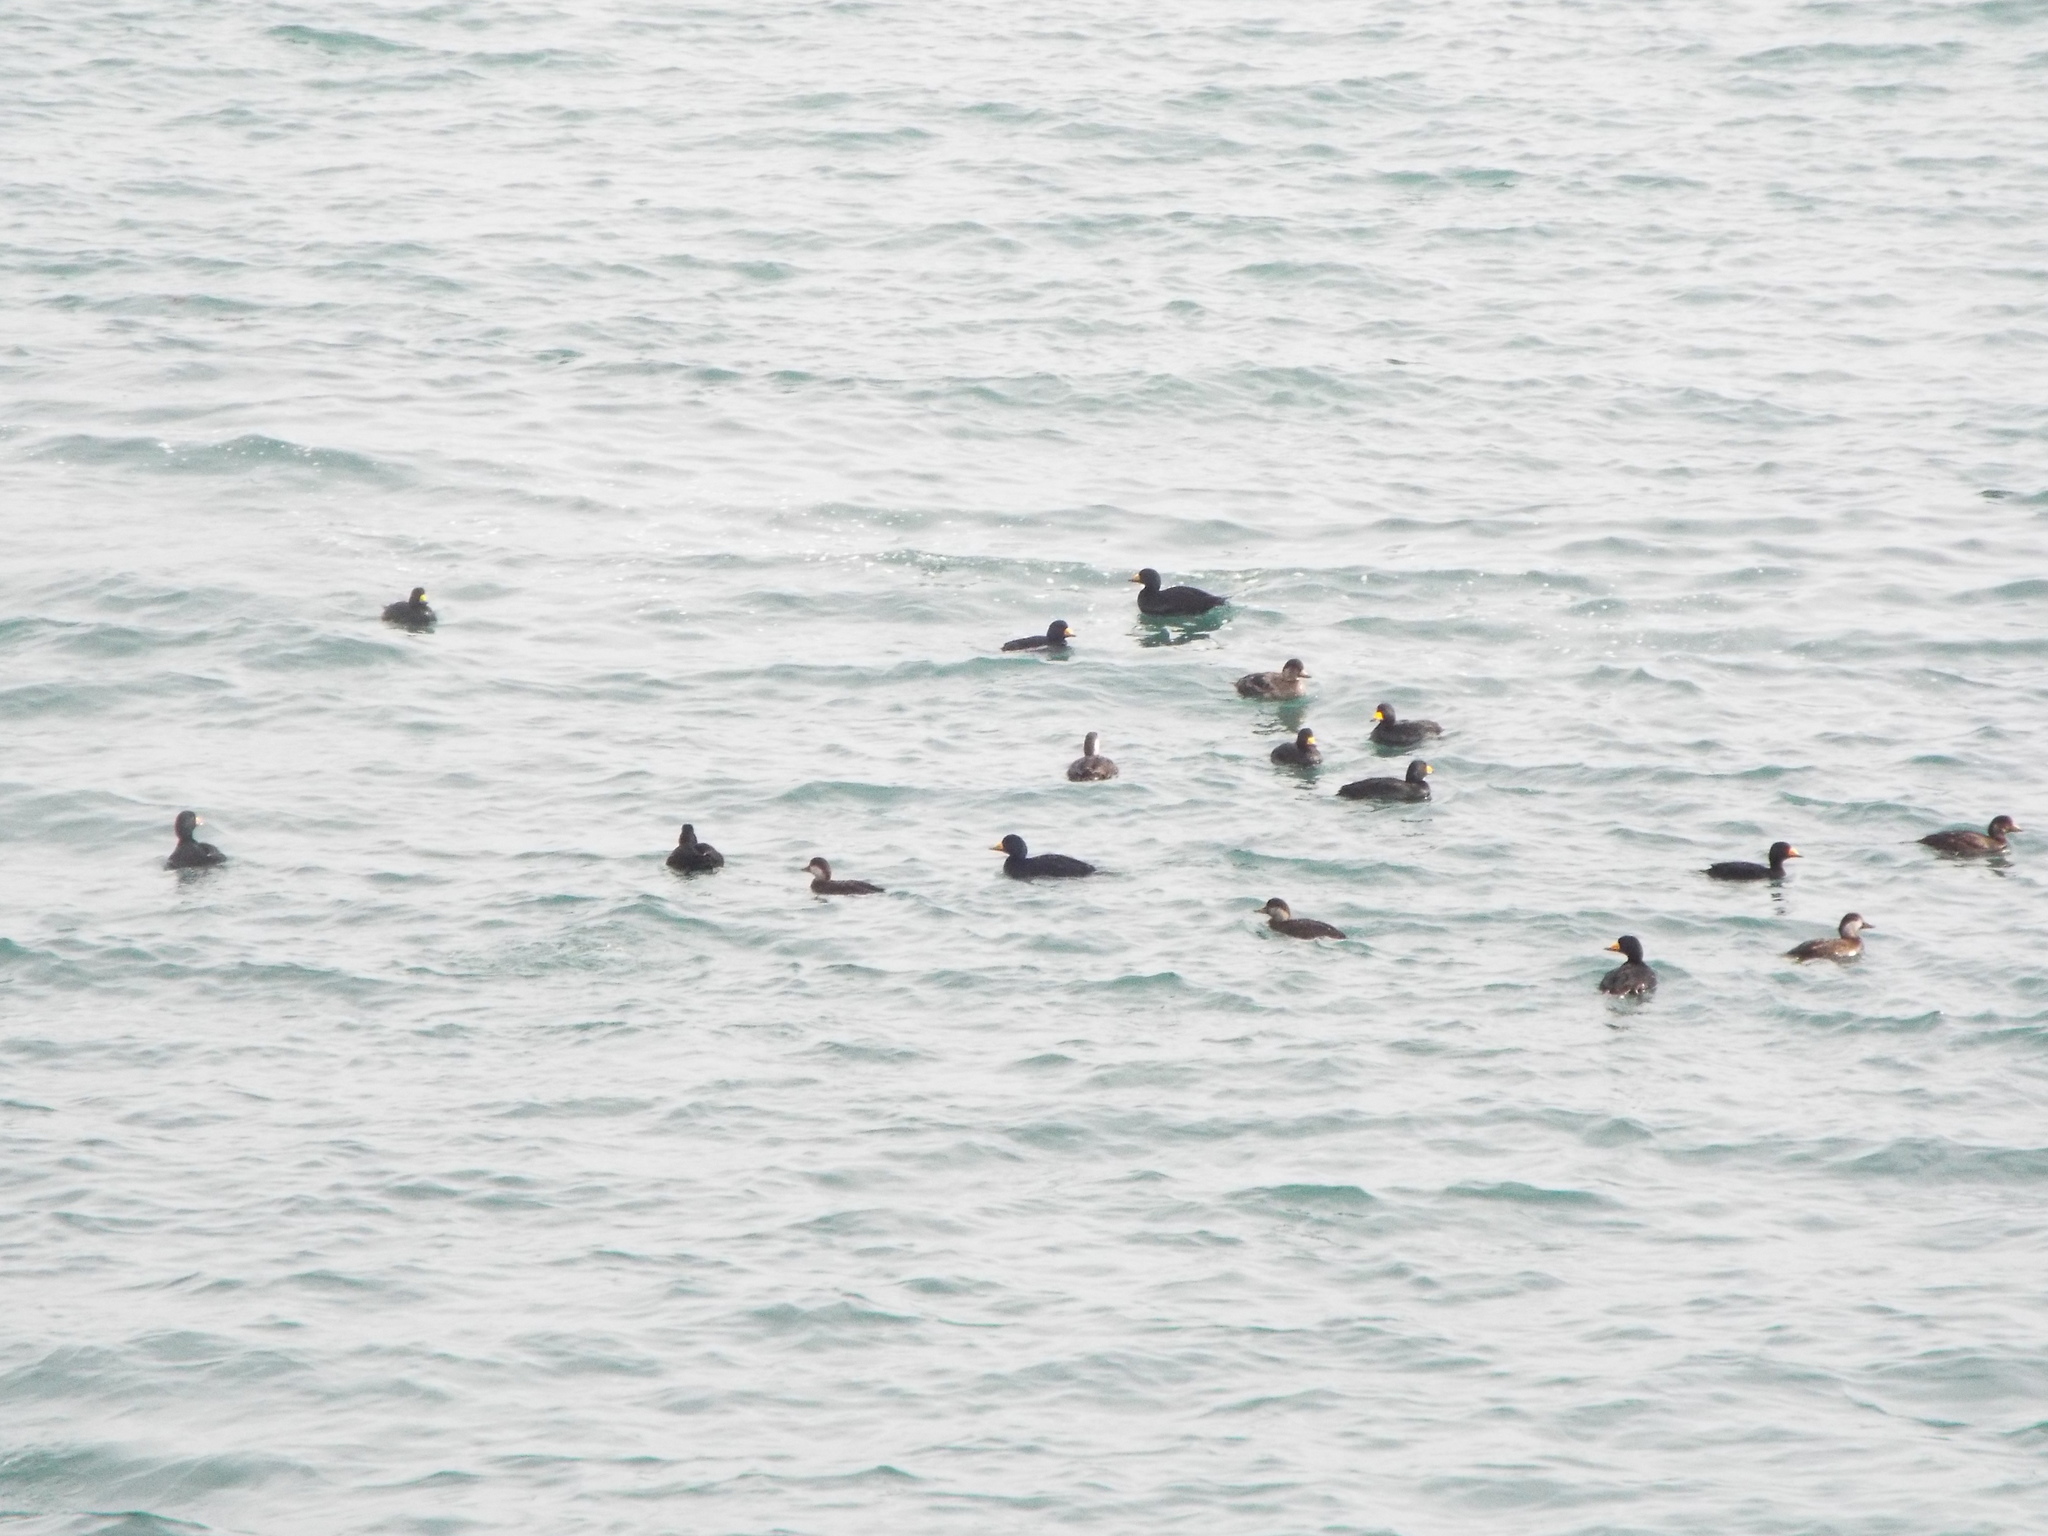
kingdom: Animalia
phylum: Chordata
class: Aves
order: Anseriformes
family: Anatidae
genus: Melanitta
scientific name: Melanitta americana
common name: Black scoter
